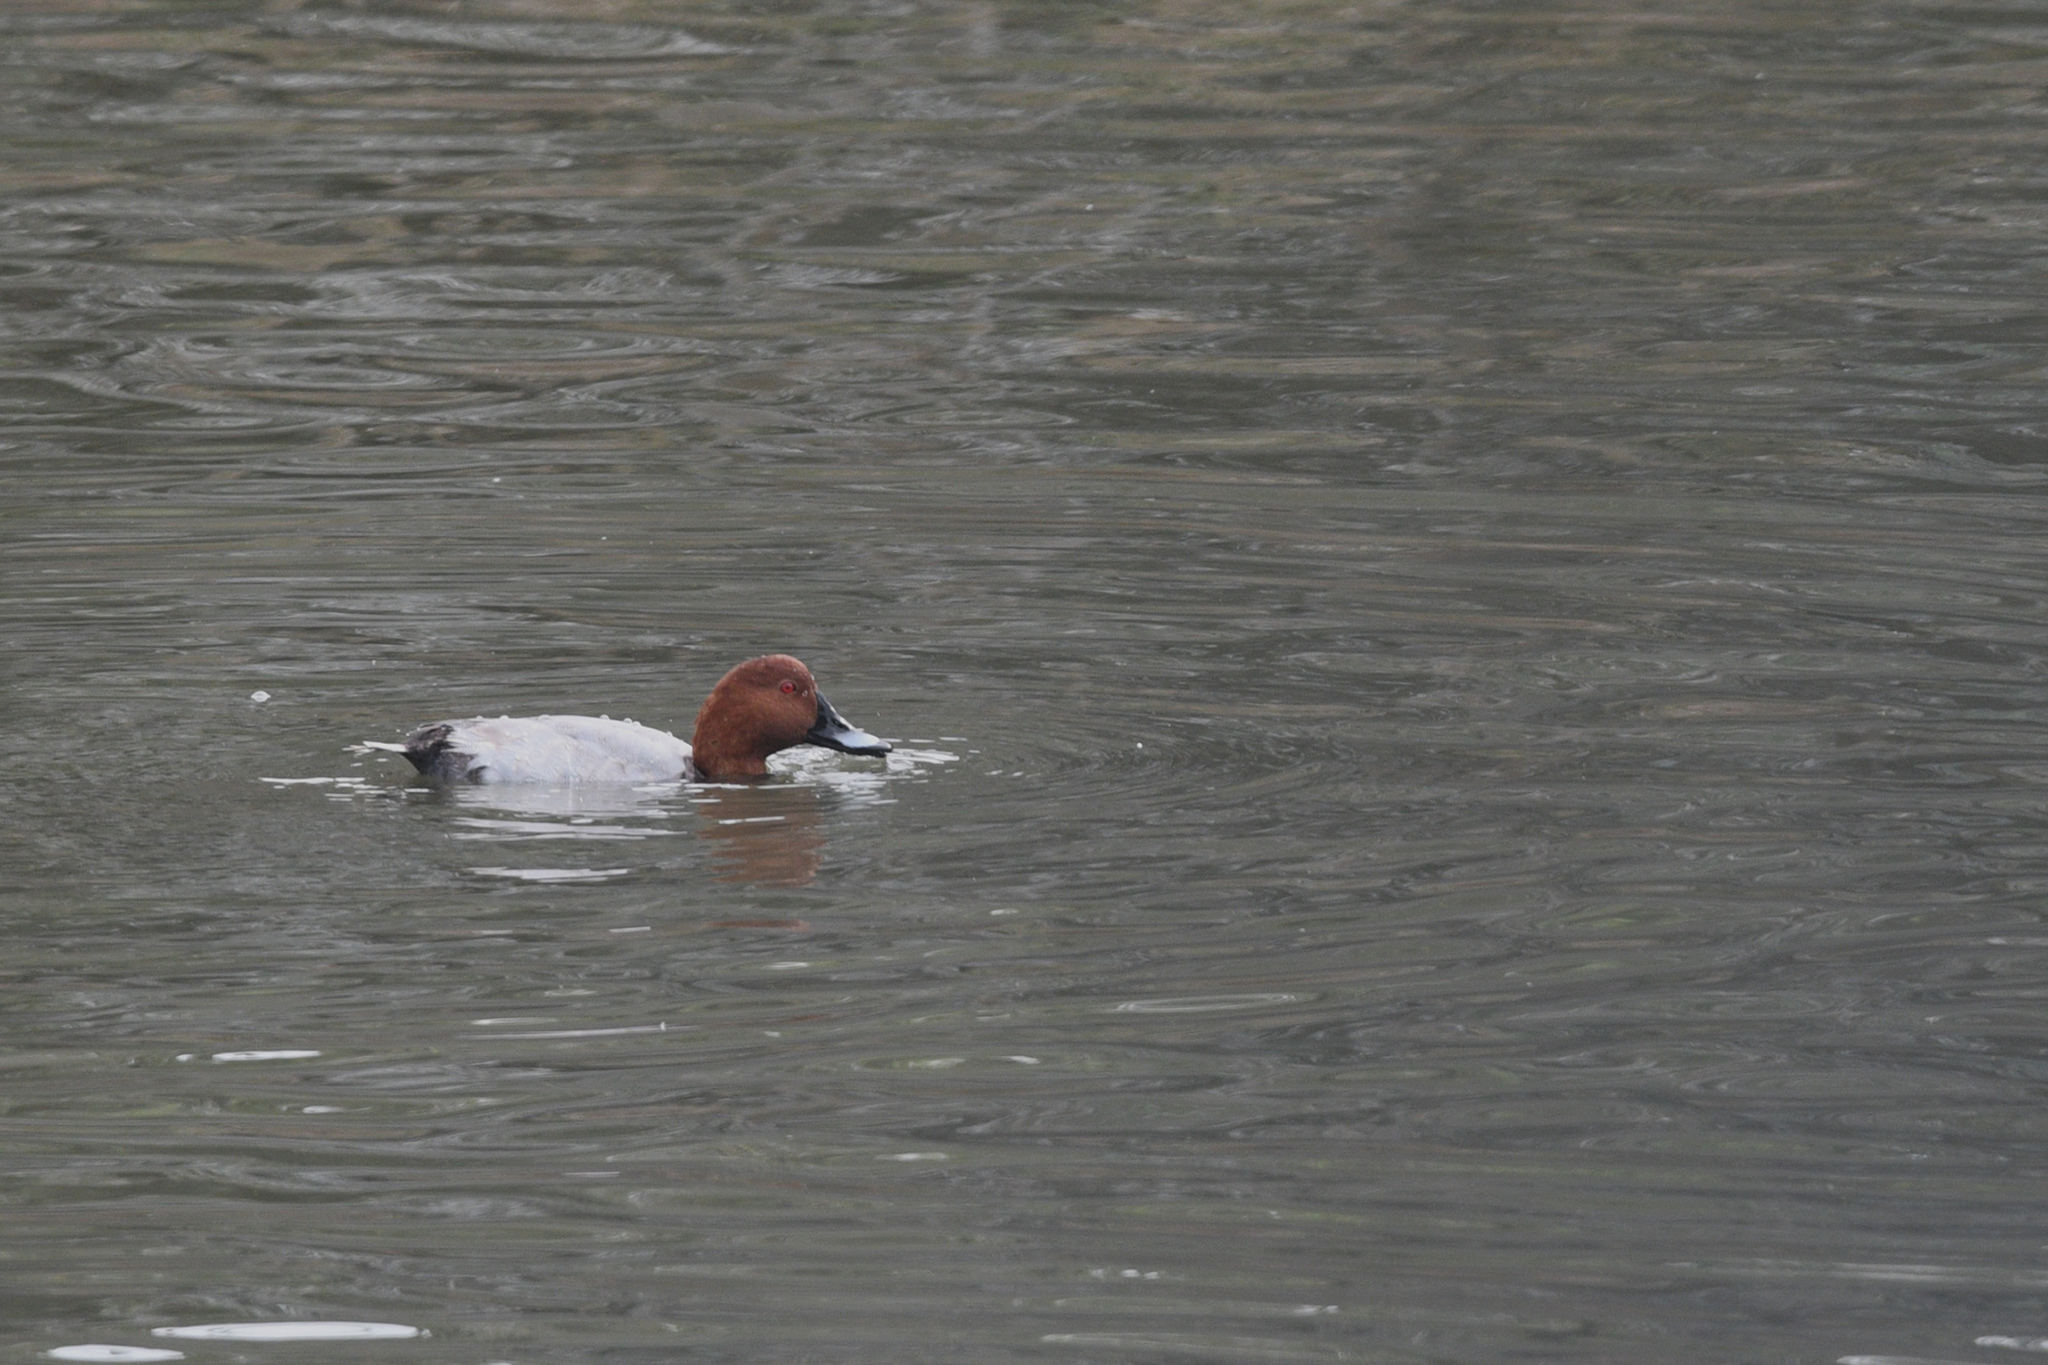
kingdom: Animalia
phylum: Chordata
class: Aves
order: Anseriformes
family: Anatidae
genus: Aythya
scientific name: Aythya ferina
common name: Common pochard
